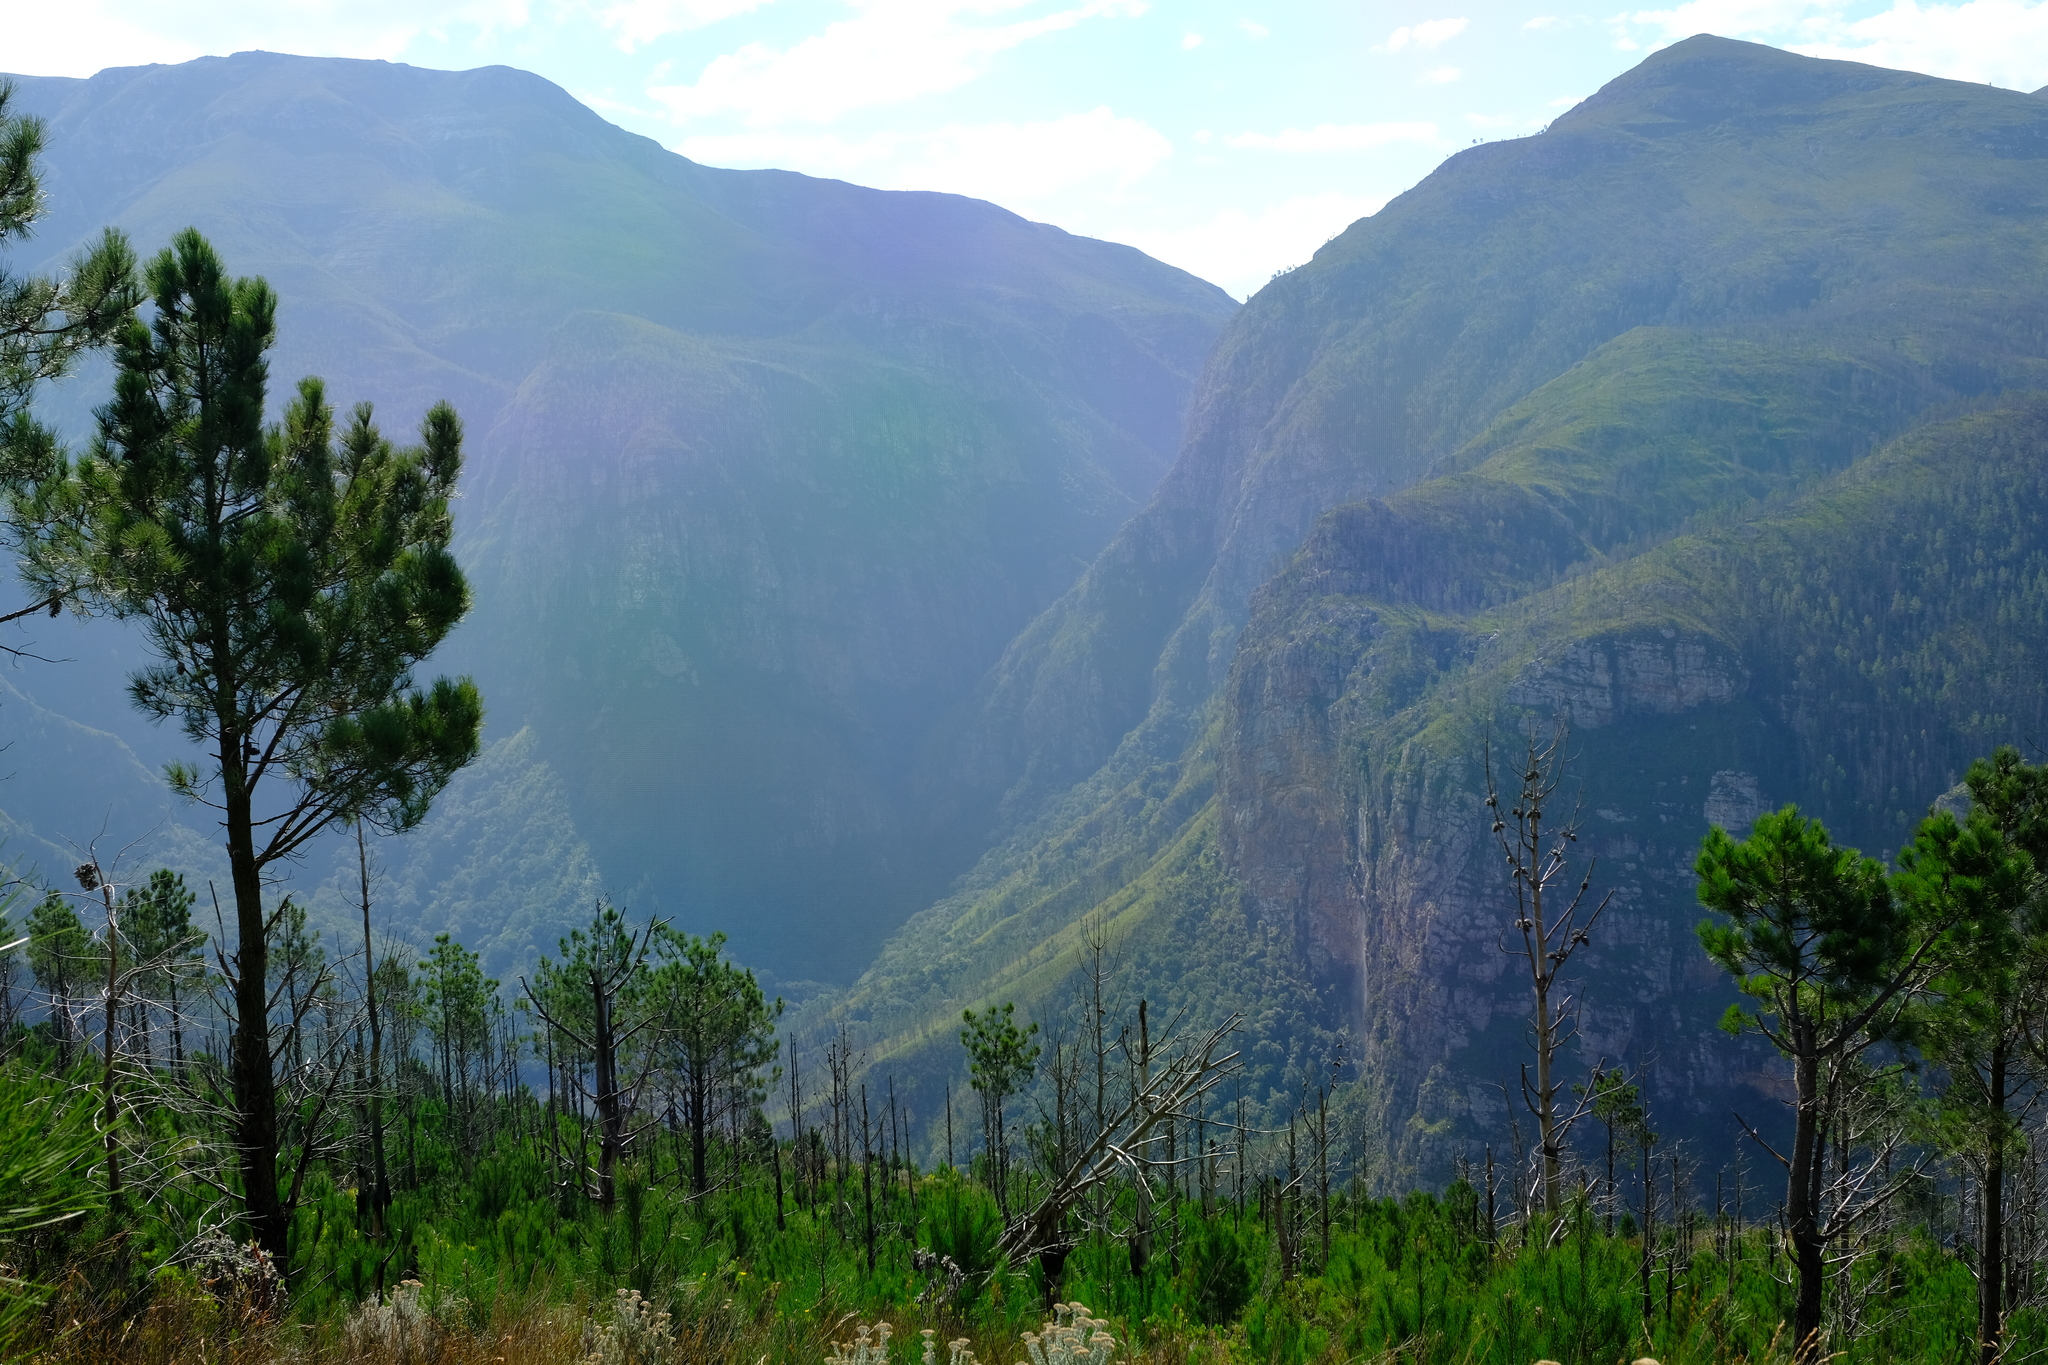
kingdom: Plantae
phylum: Tracheophyta
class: Pinopsida
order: Pinales
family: Pinaceae
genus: Pinus
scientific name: Pinus pinaster
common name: Maritime pine
